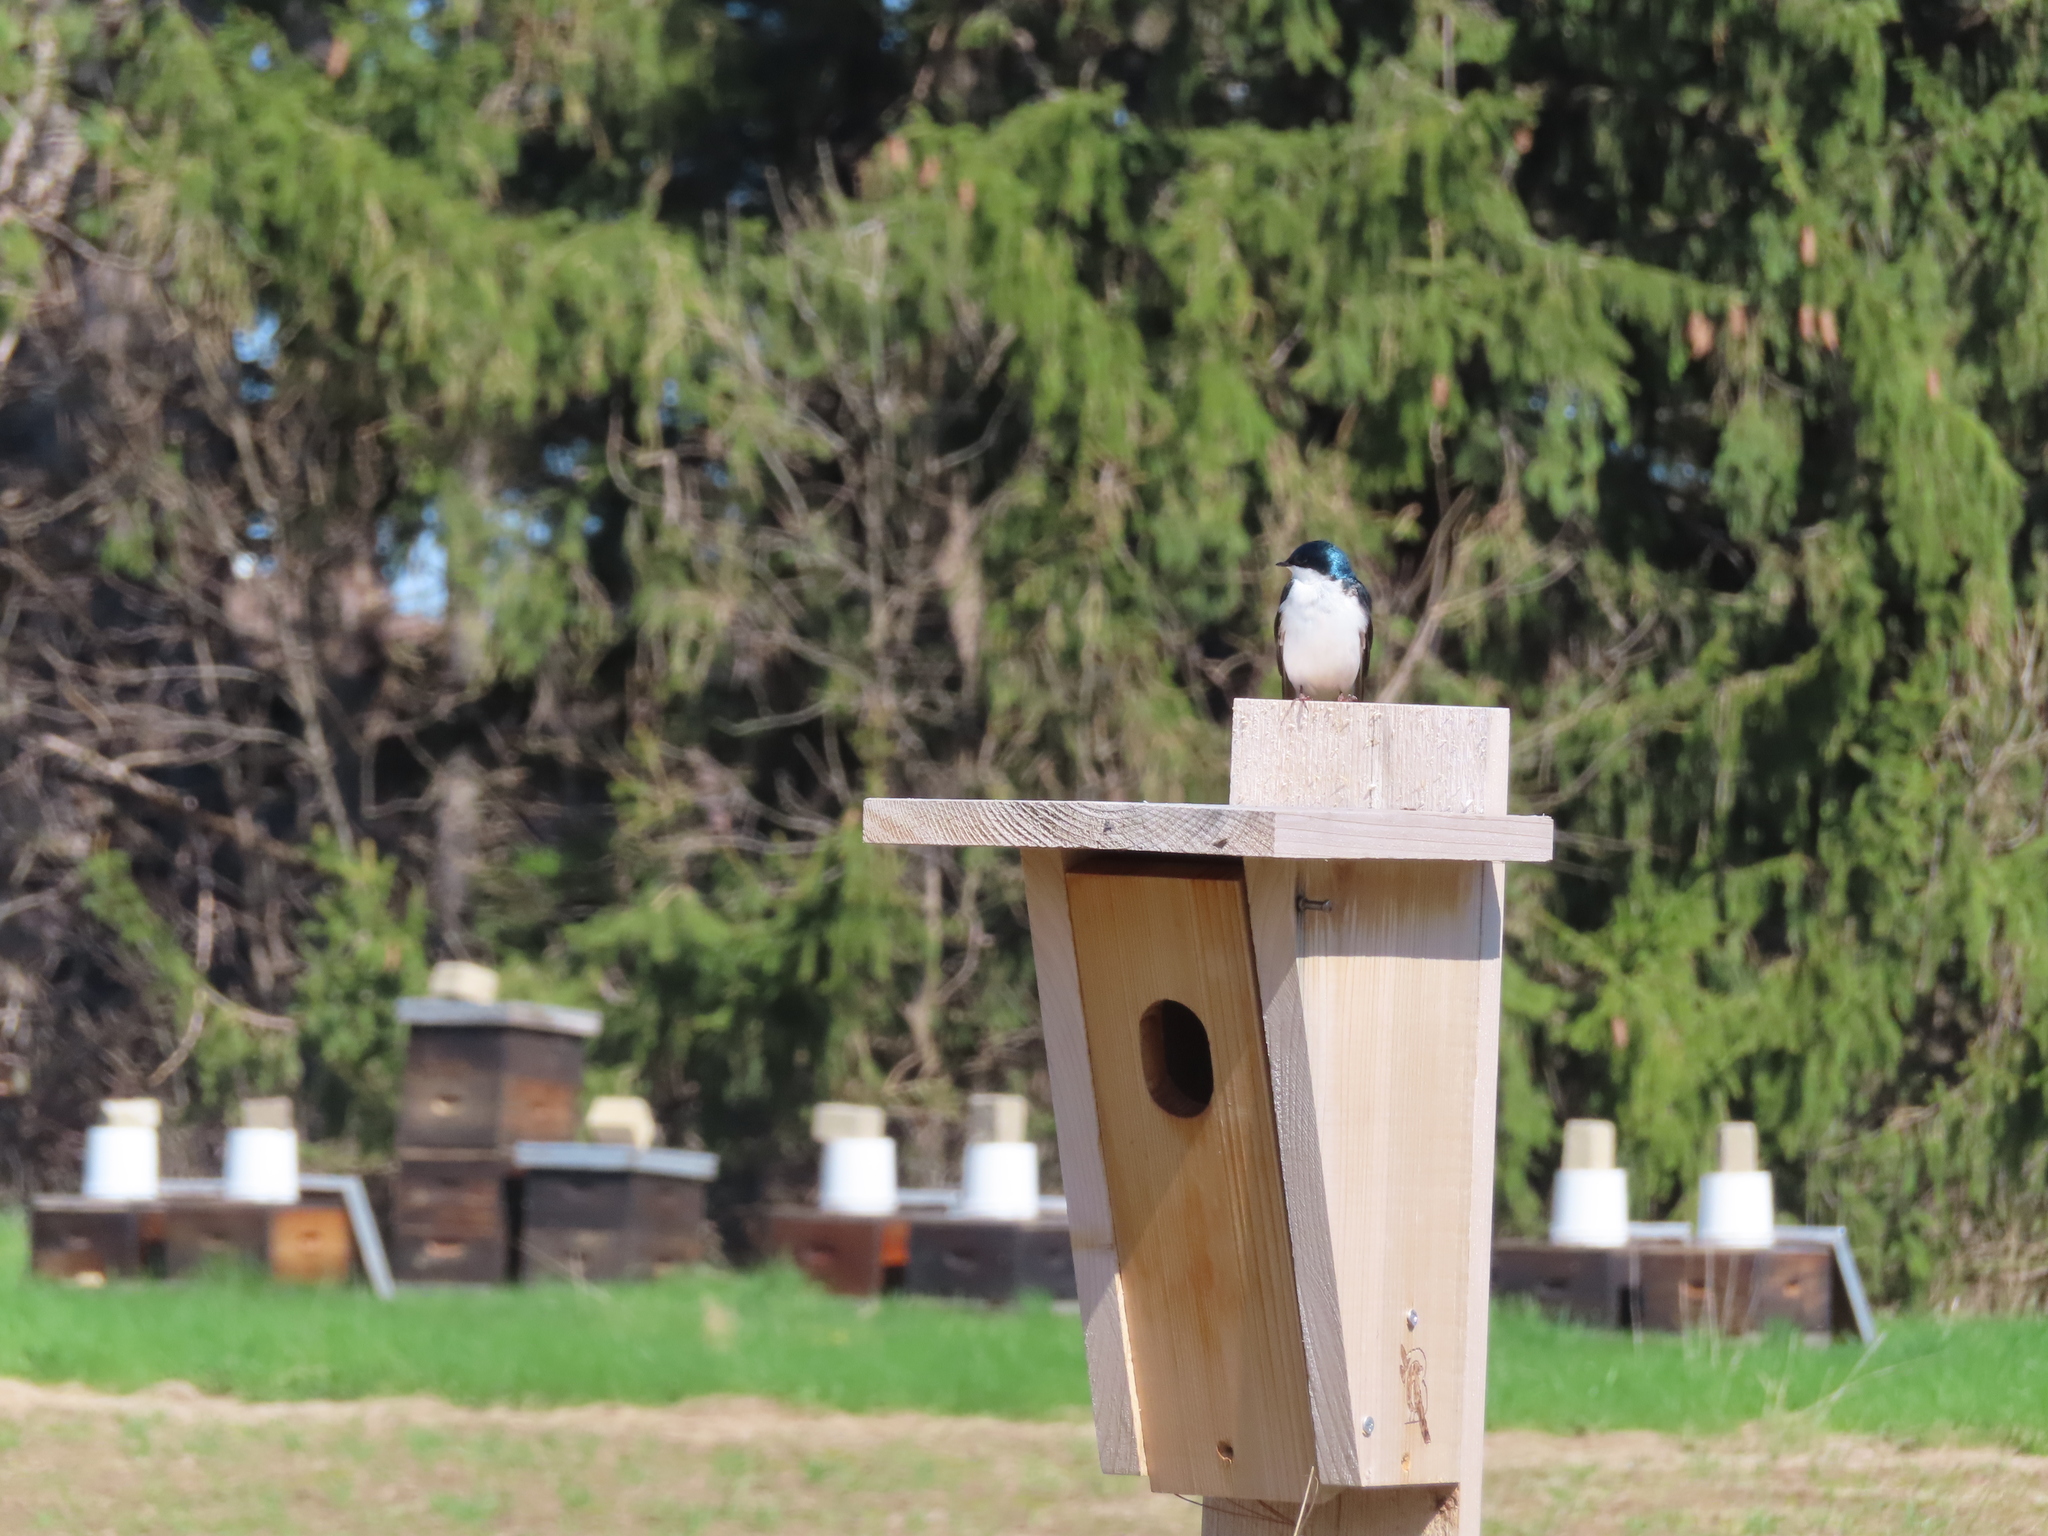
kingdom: Animalia
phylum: Chordata
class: Aves
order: Passeriformes
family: Hirundinidae
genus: Tachycineta
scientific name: Tachycineta bicolor
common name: Tree swallow
